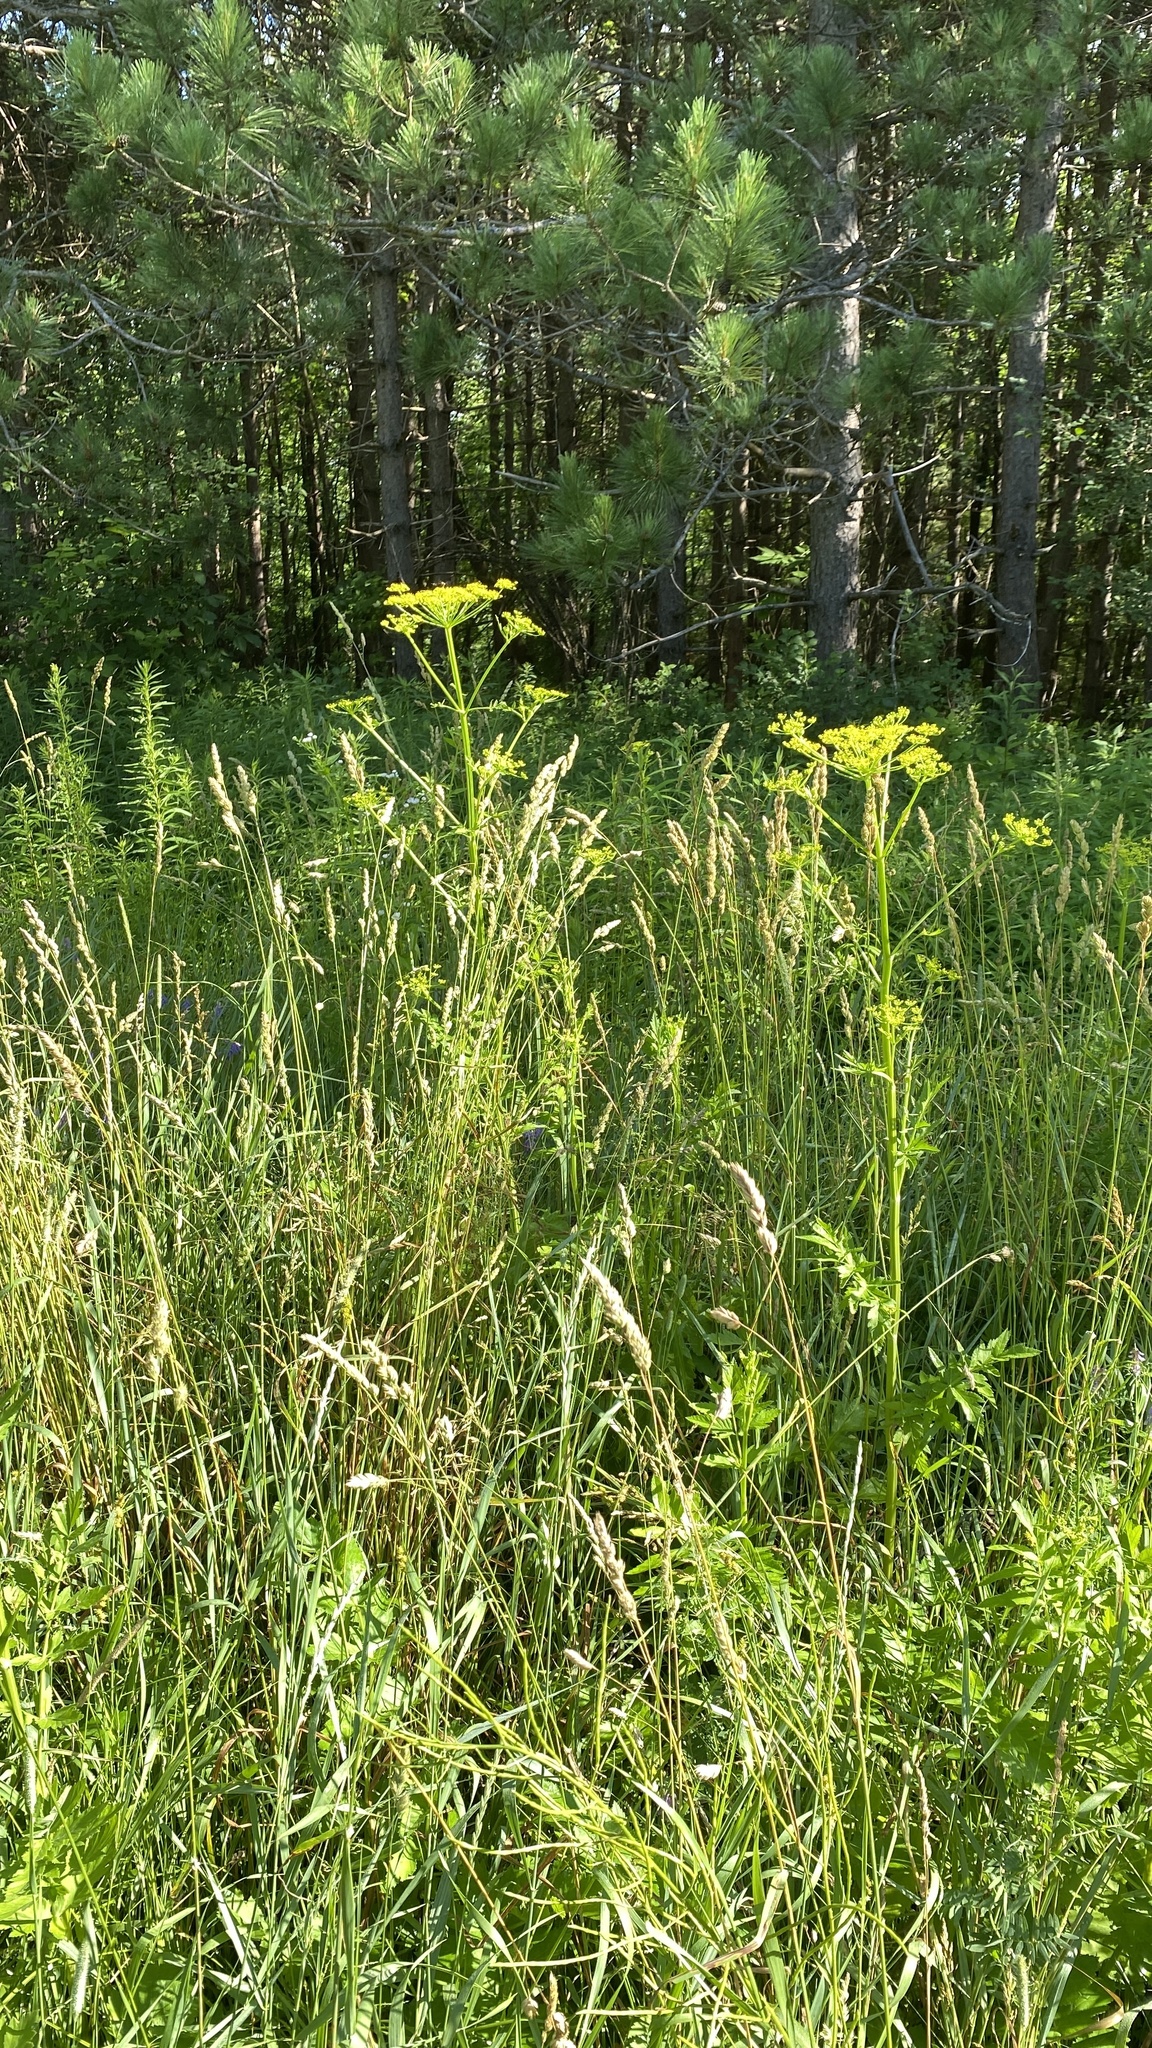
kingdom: Plantae
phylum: Tracheophyta
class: Magnoliopsida
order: Apiales
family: Apiaceae
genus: Pastinaca
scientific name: Pastinaca sativa
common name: Wild parsnip
